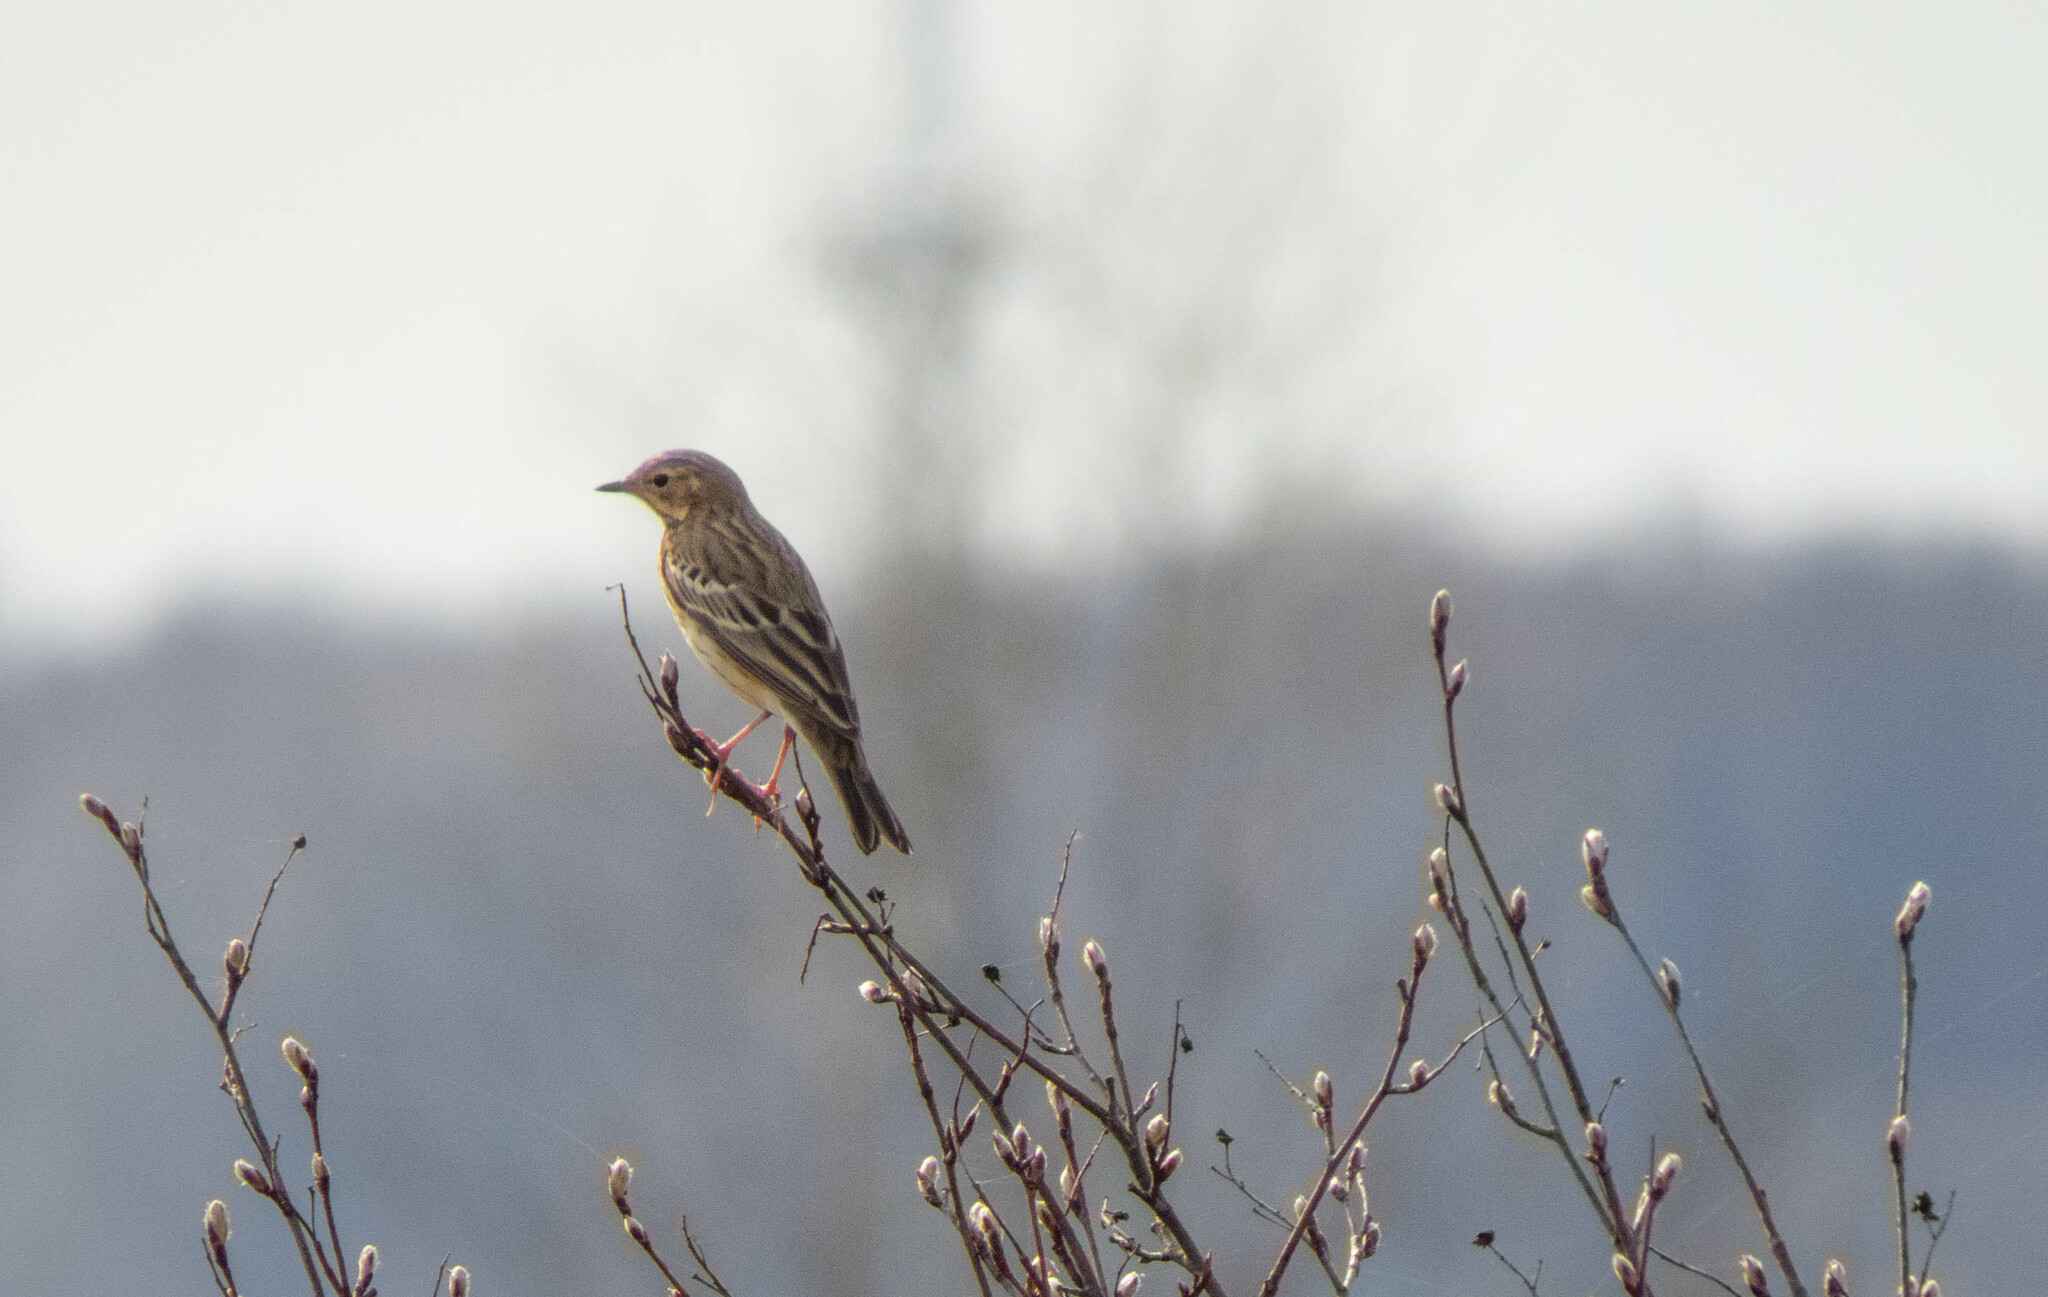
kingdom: Animalia
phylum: Chordata
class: Aves
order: Passeriformes
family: Motacillidae
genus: Anthus
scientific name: Anthus trivialis
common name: Tree pipit
